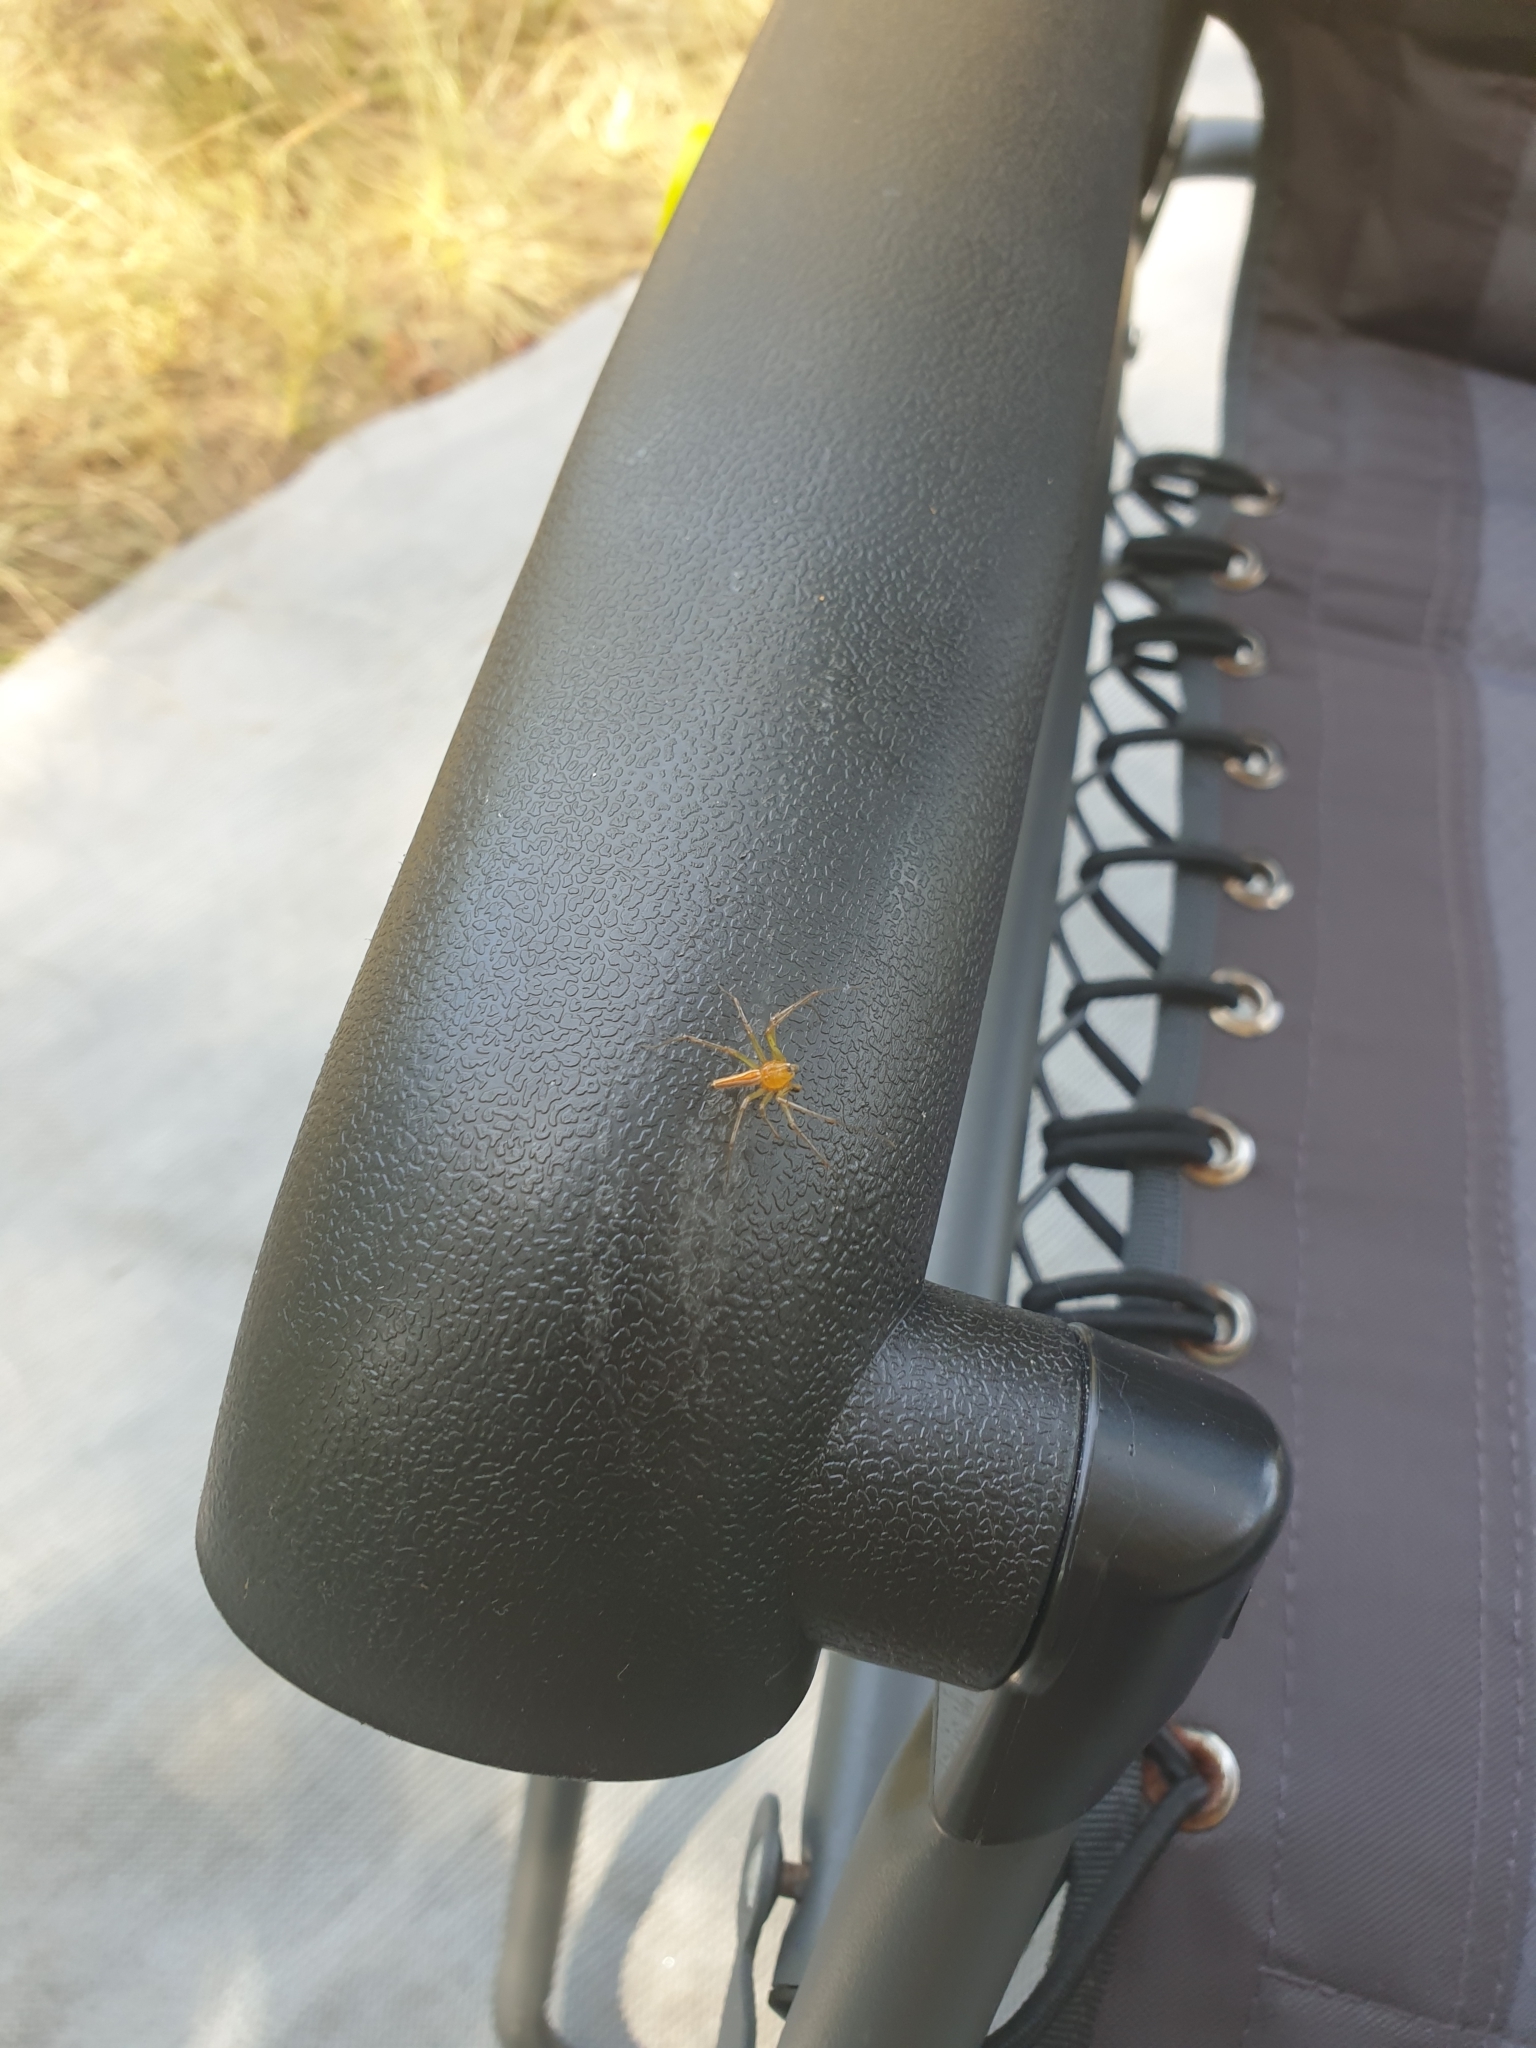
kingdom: Animalia
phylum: Arthropoda
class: Arachnida
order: Araneae
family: Oxyopidae
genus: Oxyopes
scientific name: Oxyopes macilentus
